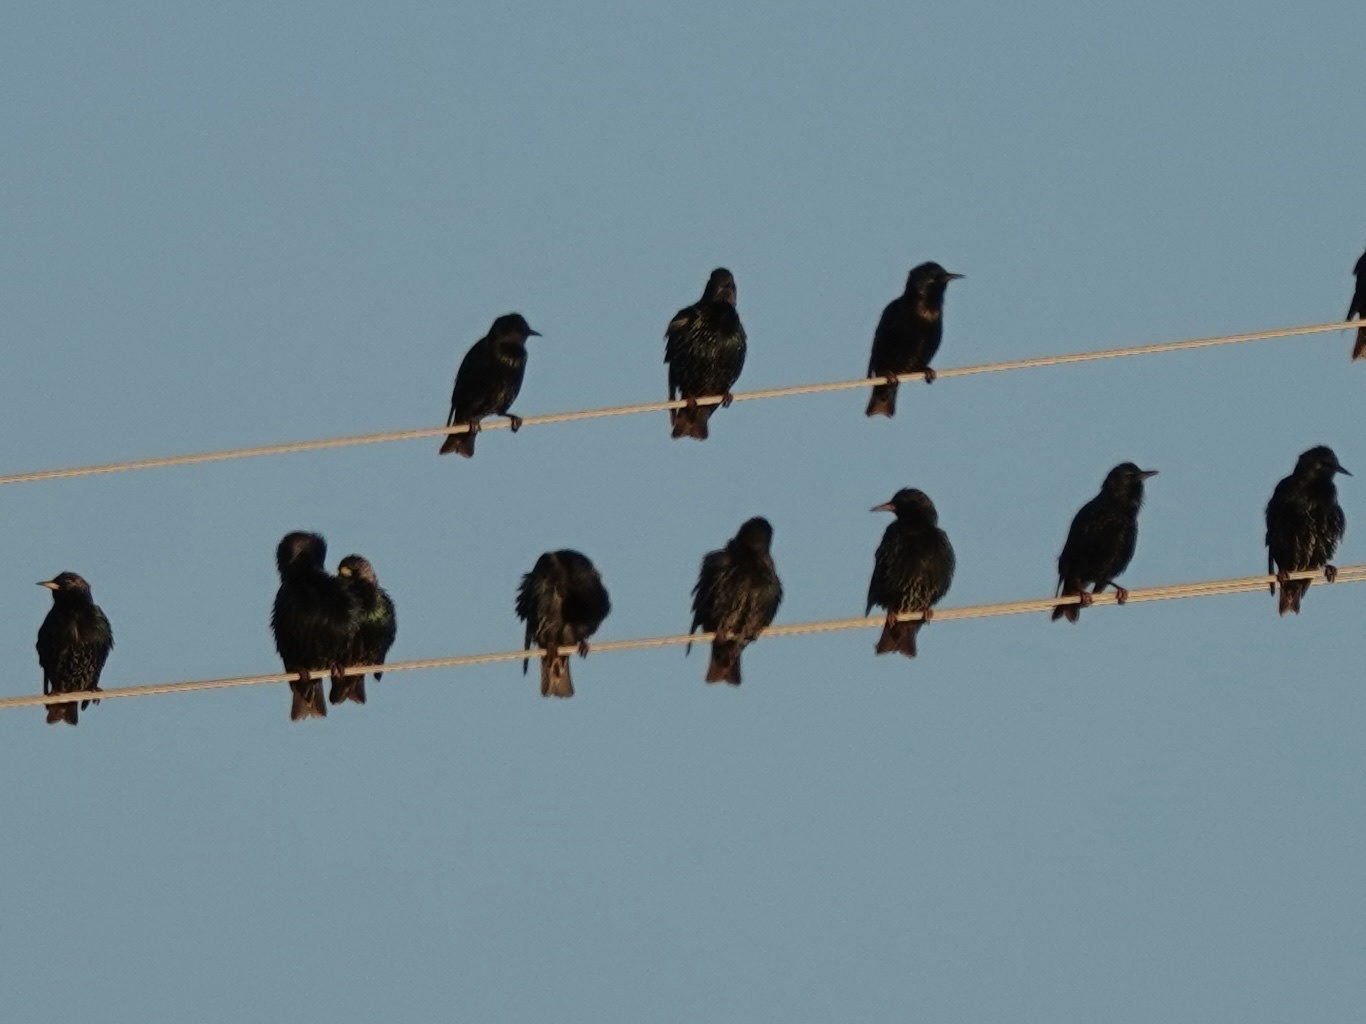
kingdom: Animalia
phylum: Chordata
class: Aves
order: Passeriformes
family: Sturnidae
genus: Sturnus
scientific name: Sturnus vulgaris
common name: Common starling
